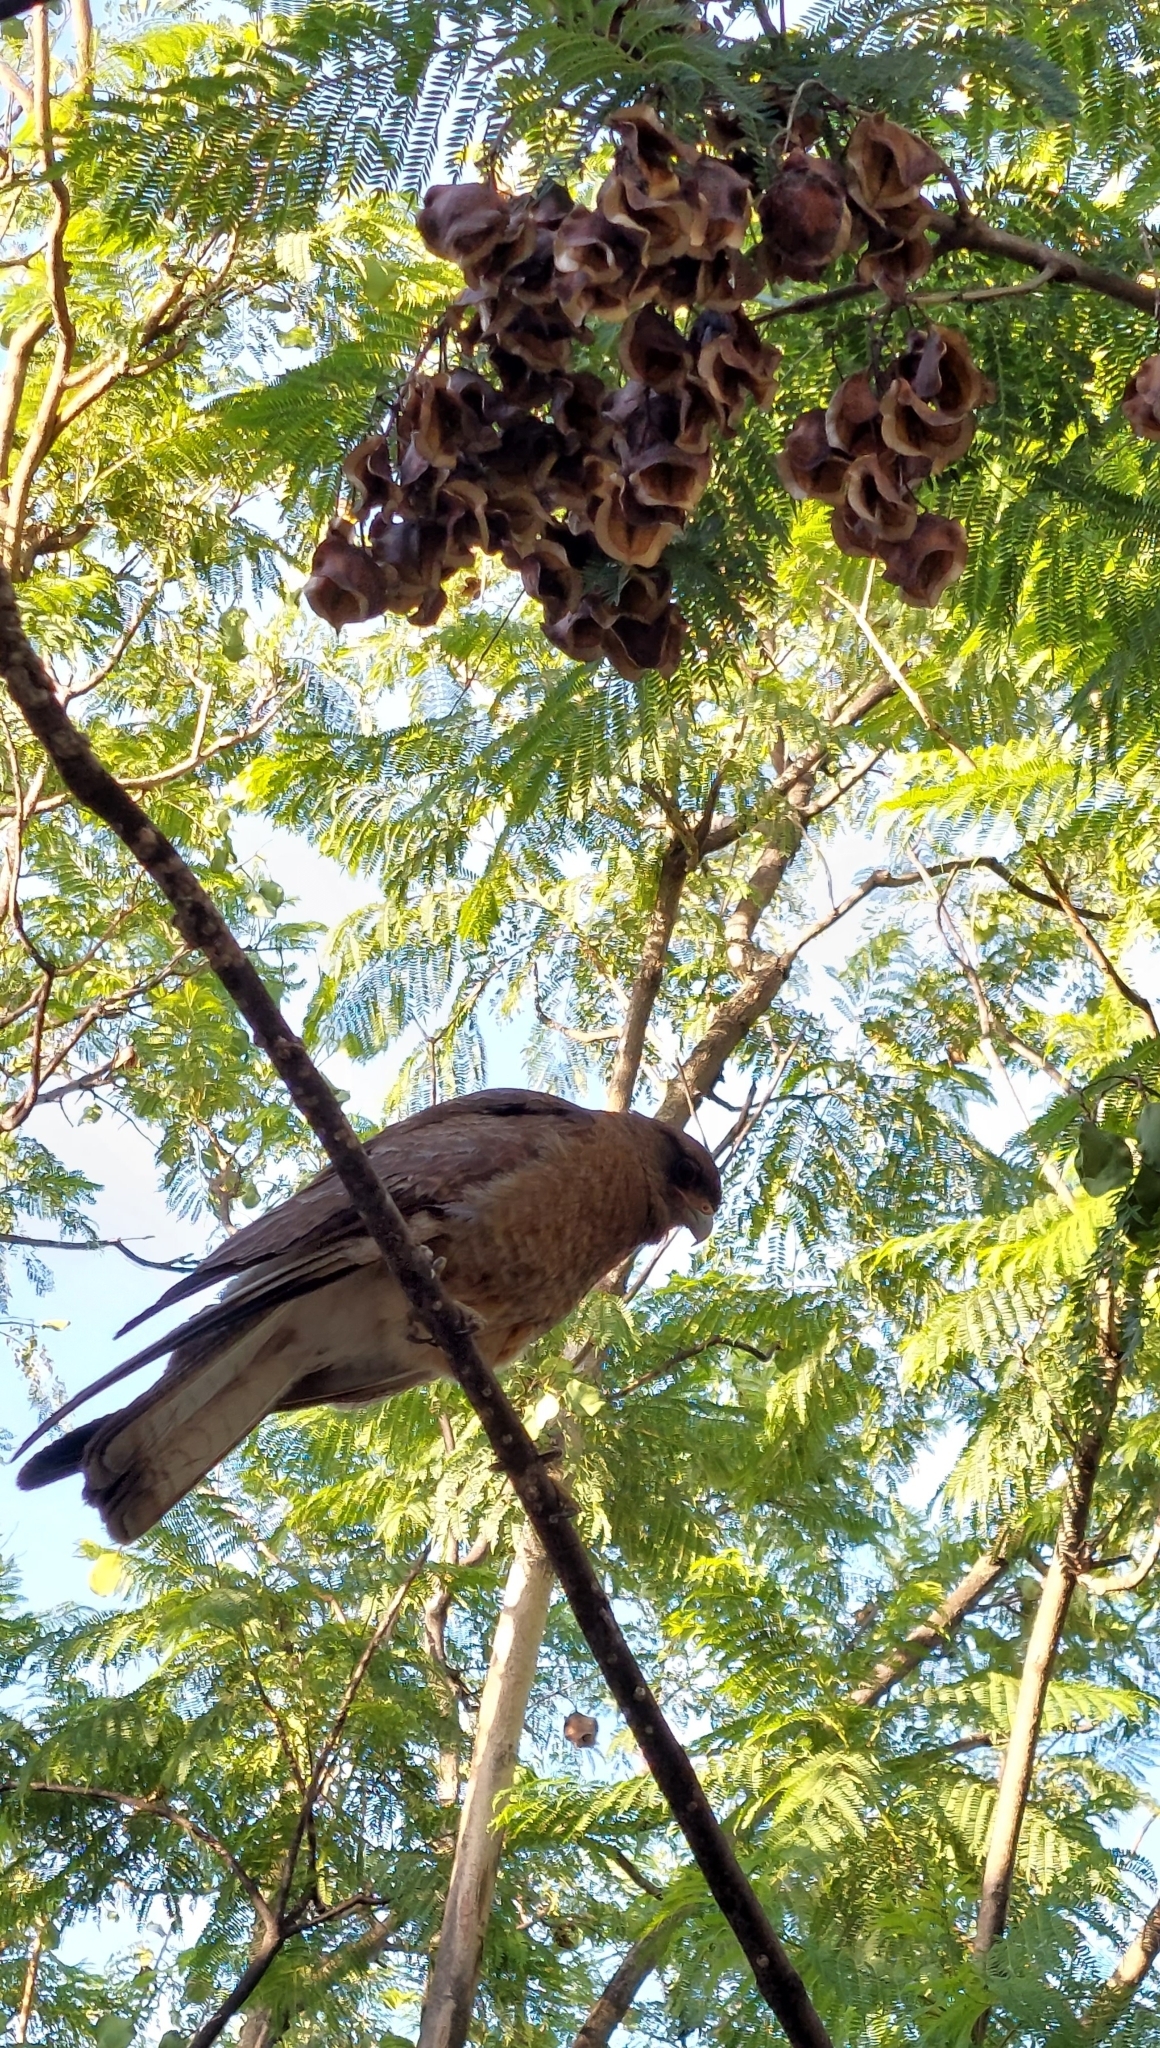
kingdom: Animalia
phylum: Chordata
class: Aves
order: Falconiformes
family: Falconidae
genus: Daptrius
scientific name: Daptrius
